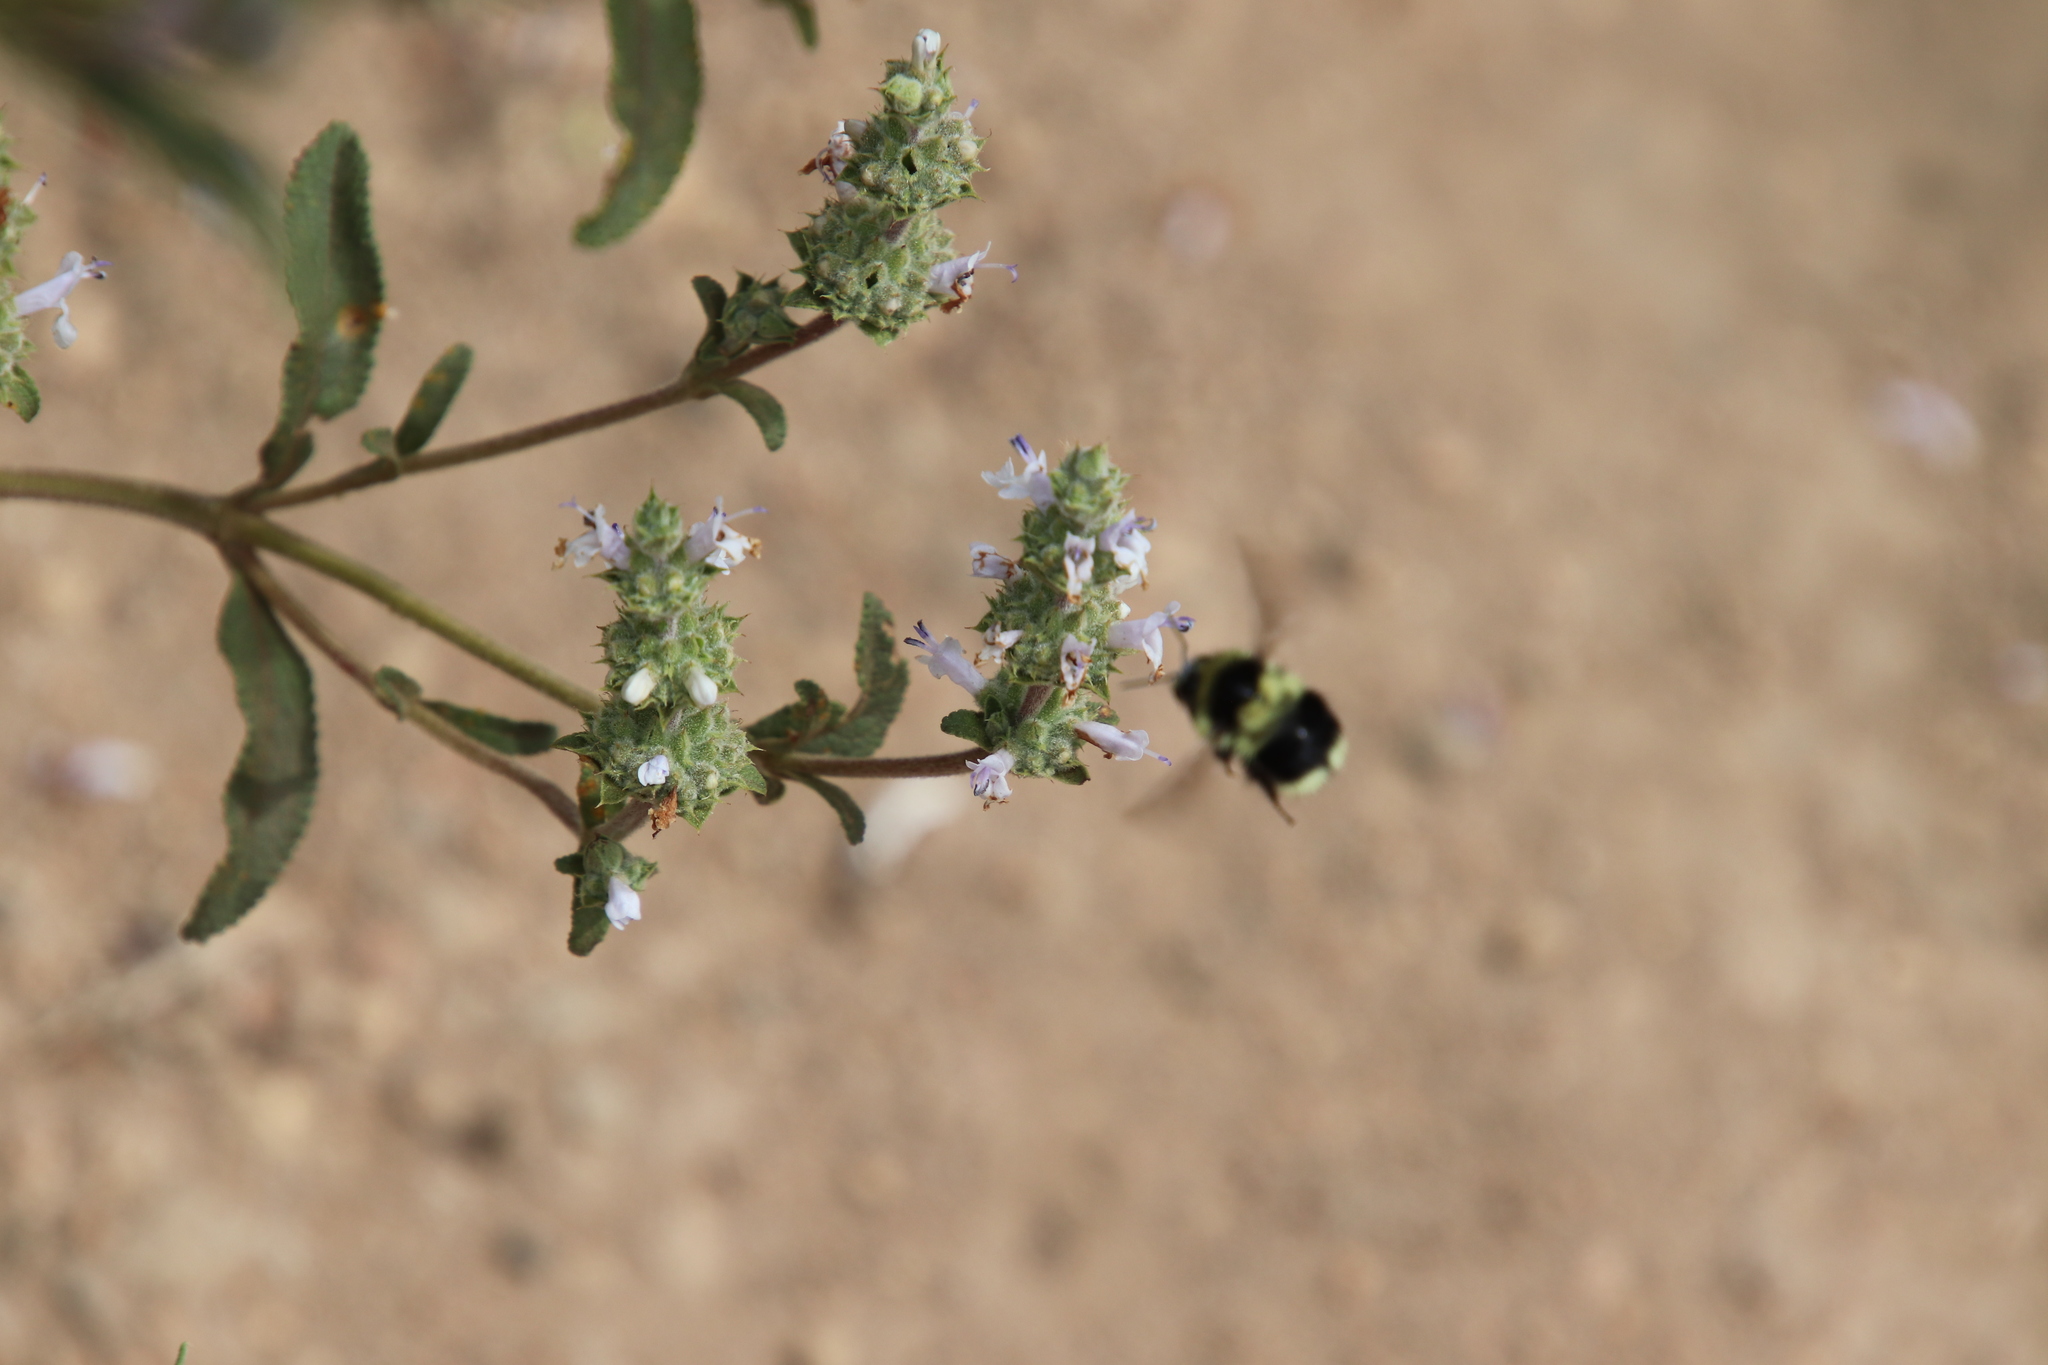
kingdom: Animalia
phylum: Arthropoda
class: Insecta
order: Hymenoptera
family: Apidae
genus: Bombus
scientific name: Bombus melanopygus
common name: Black tail bumble bee
